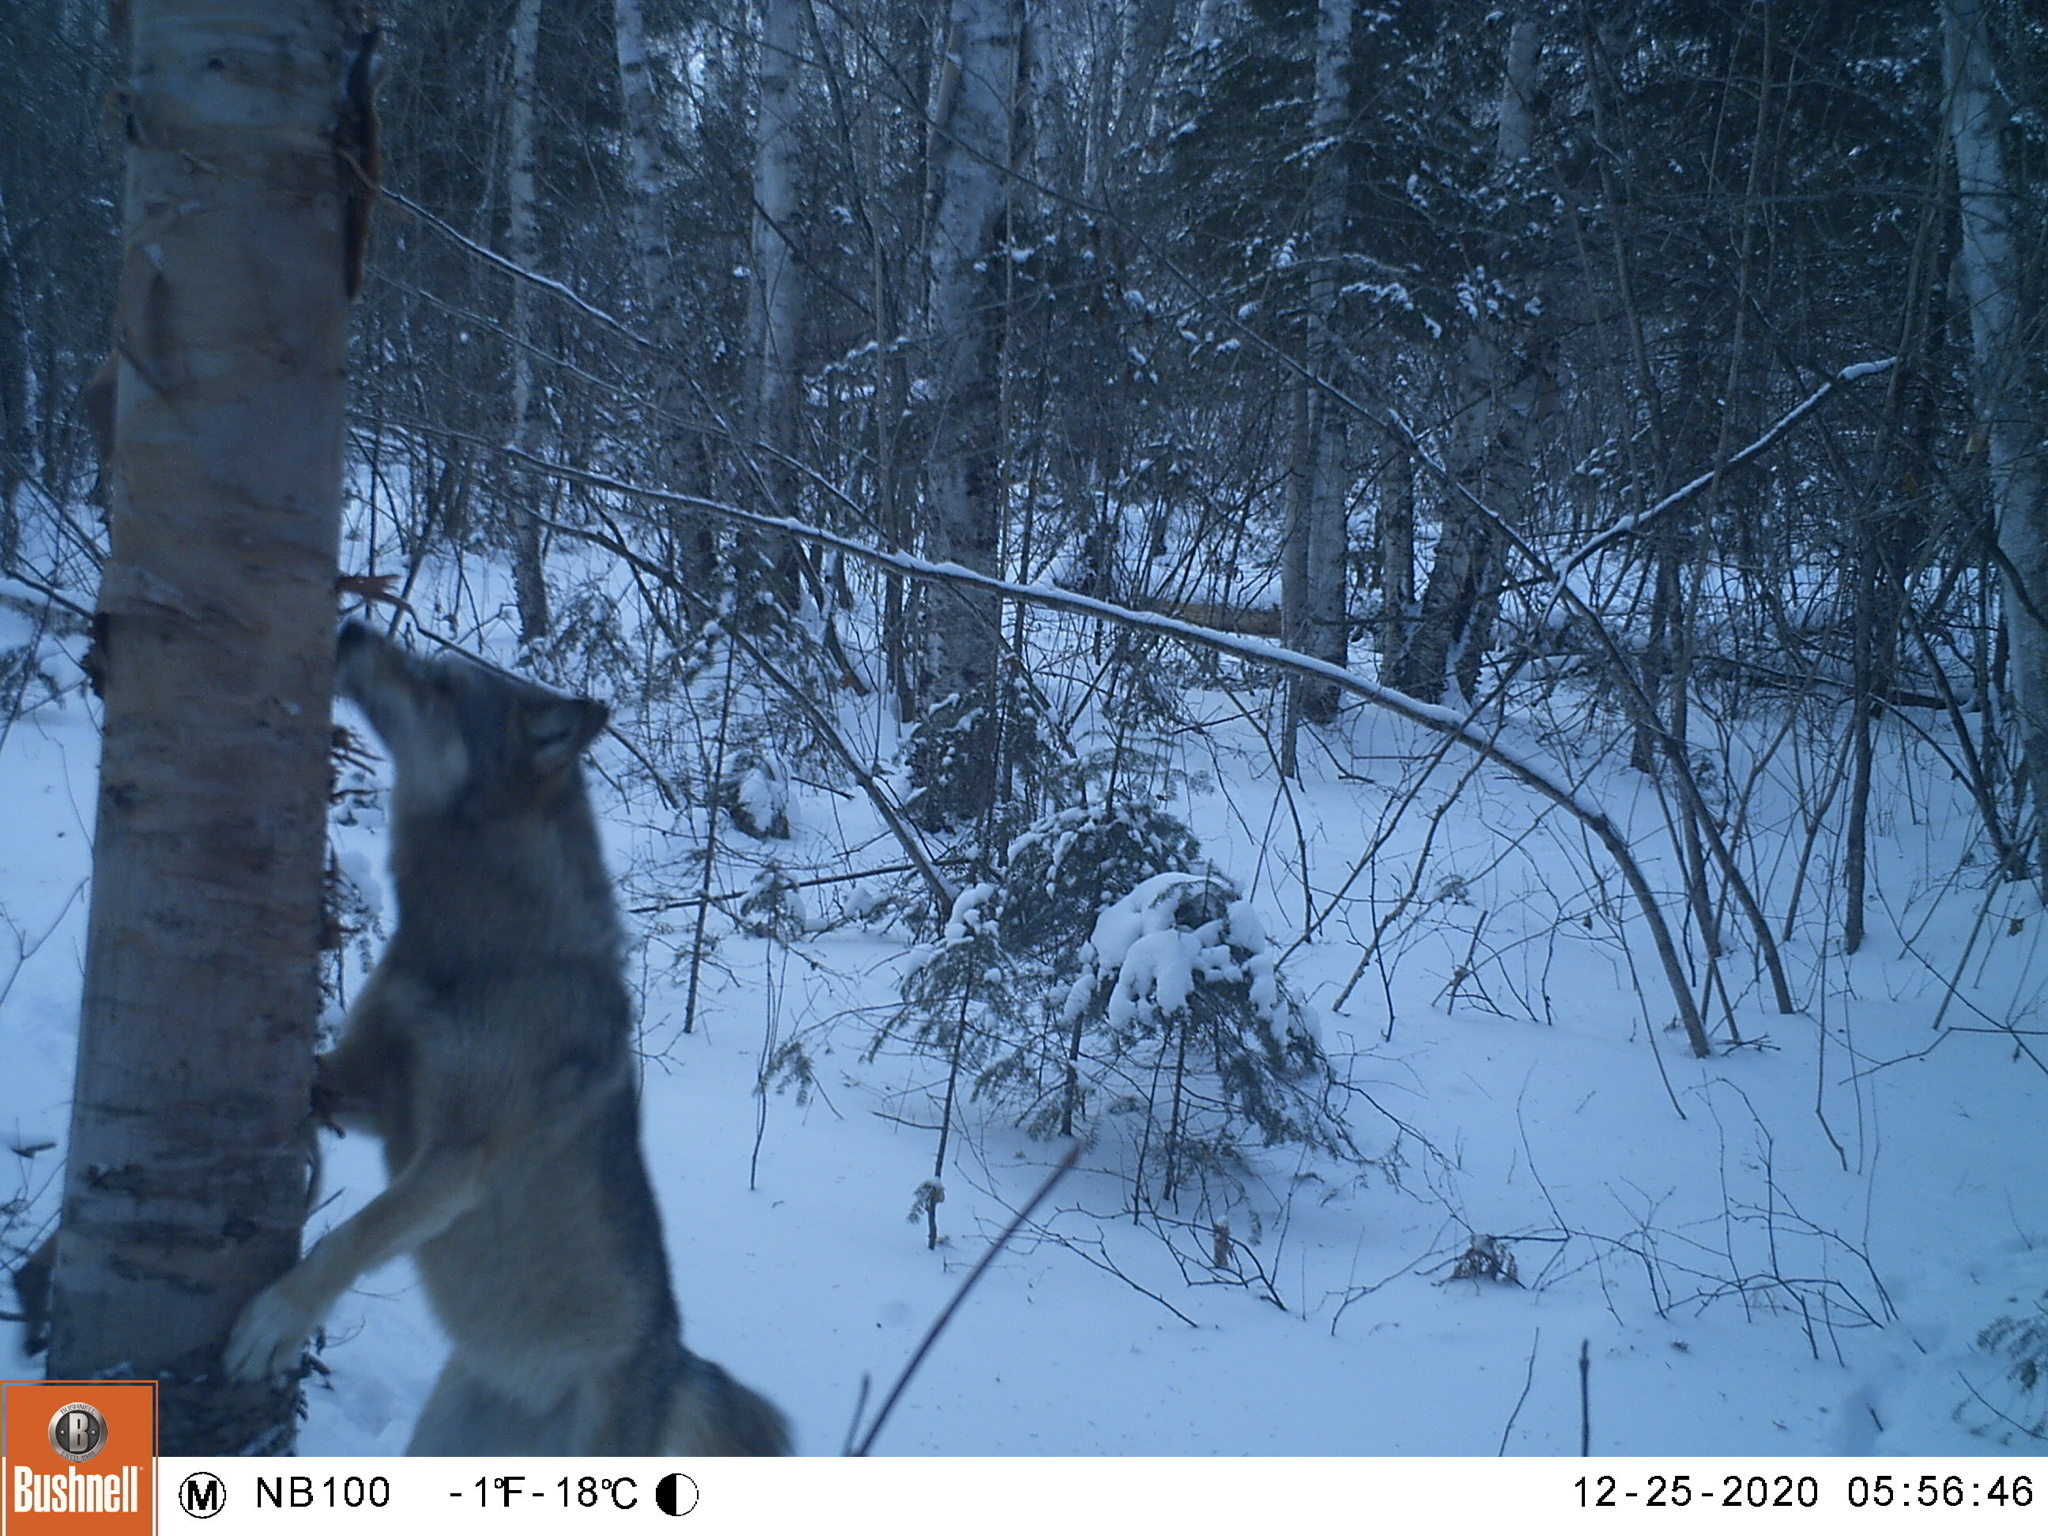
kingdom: Animalia
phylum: Chordata
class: Mammalia
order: Carnivora
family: Canidae
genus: Canis
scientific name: Canis lupus
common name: Gray wolf
